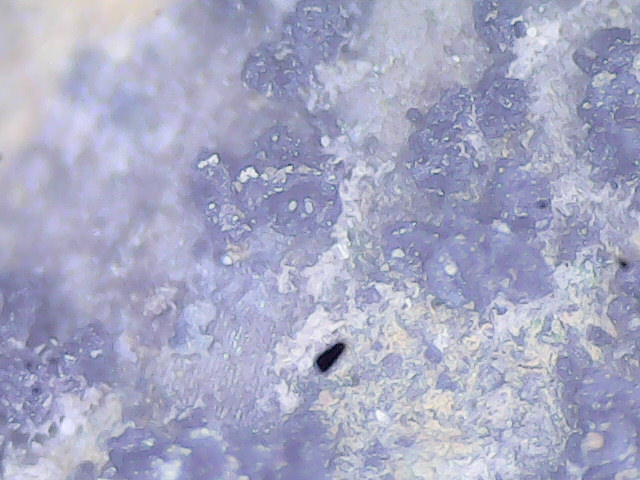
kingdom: Fungi
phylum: Ascomycota
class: Sordariomycetes
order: Hypocreales
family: Nectriaceae
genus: Fusarium
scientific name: Fusarium graminearum
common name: Gibberella stalk rot
